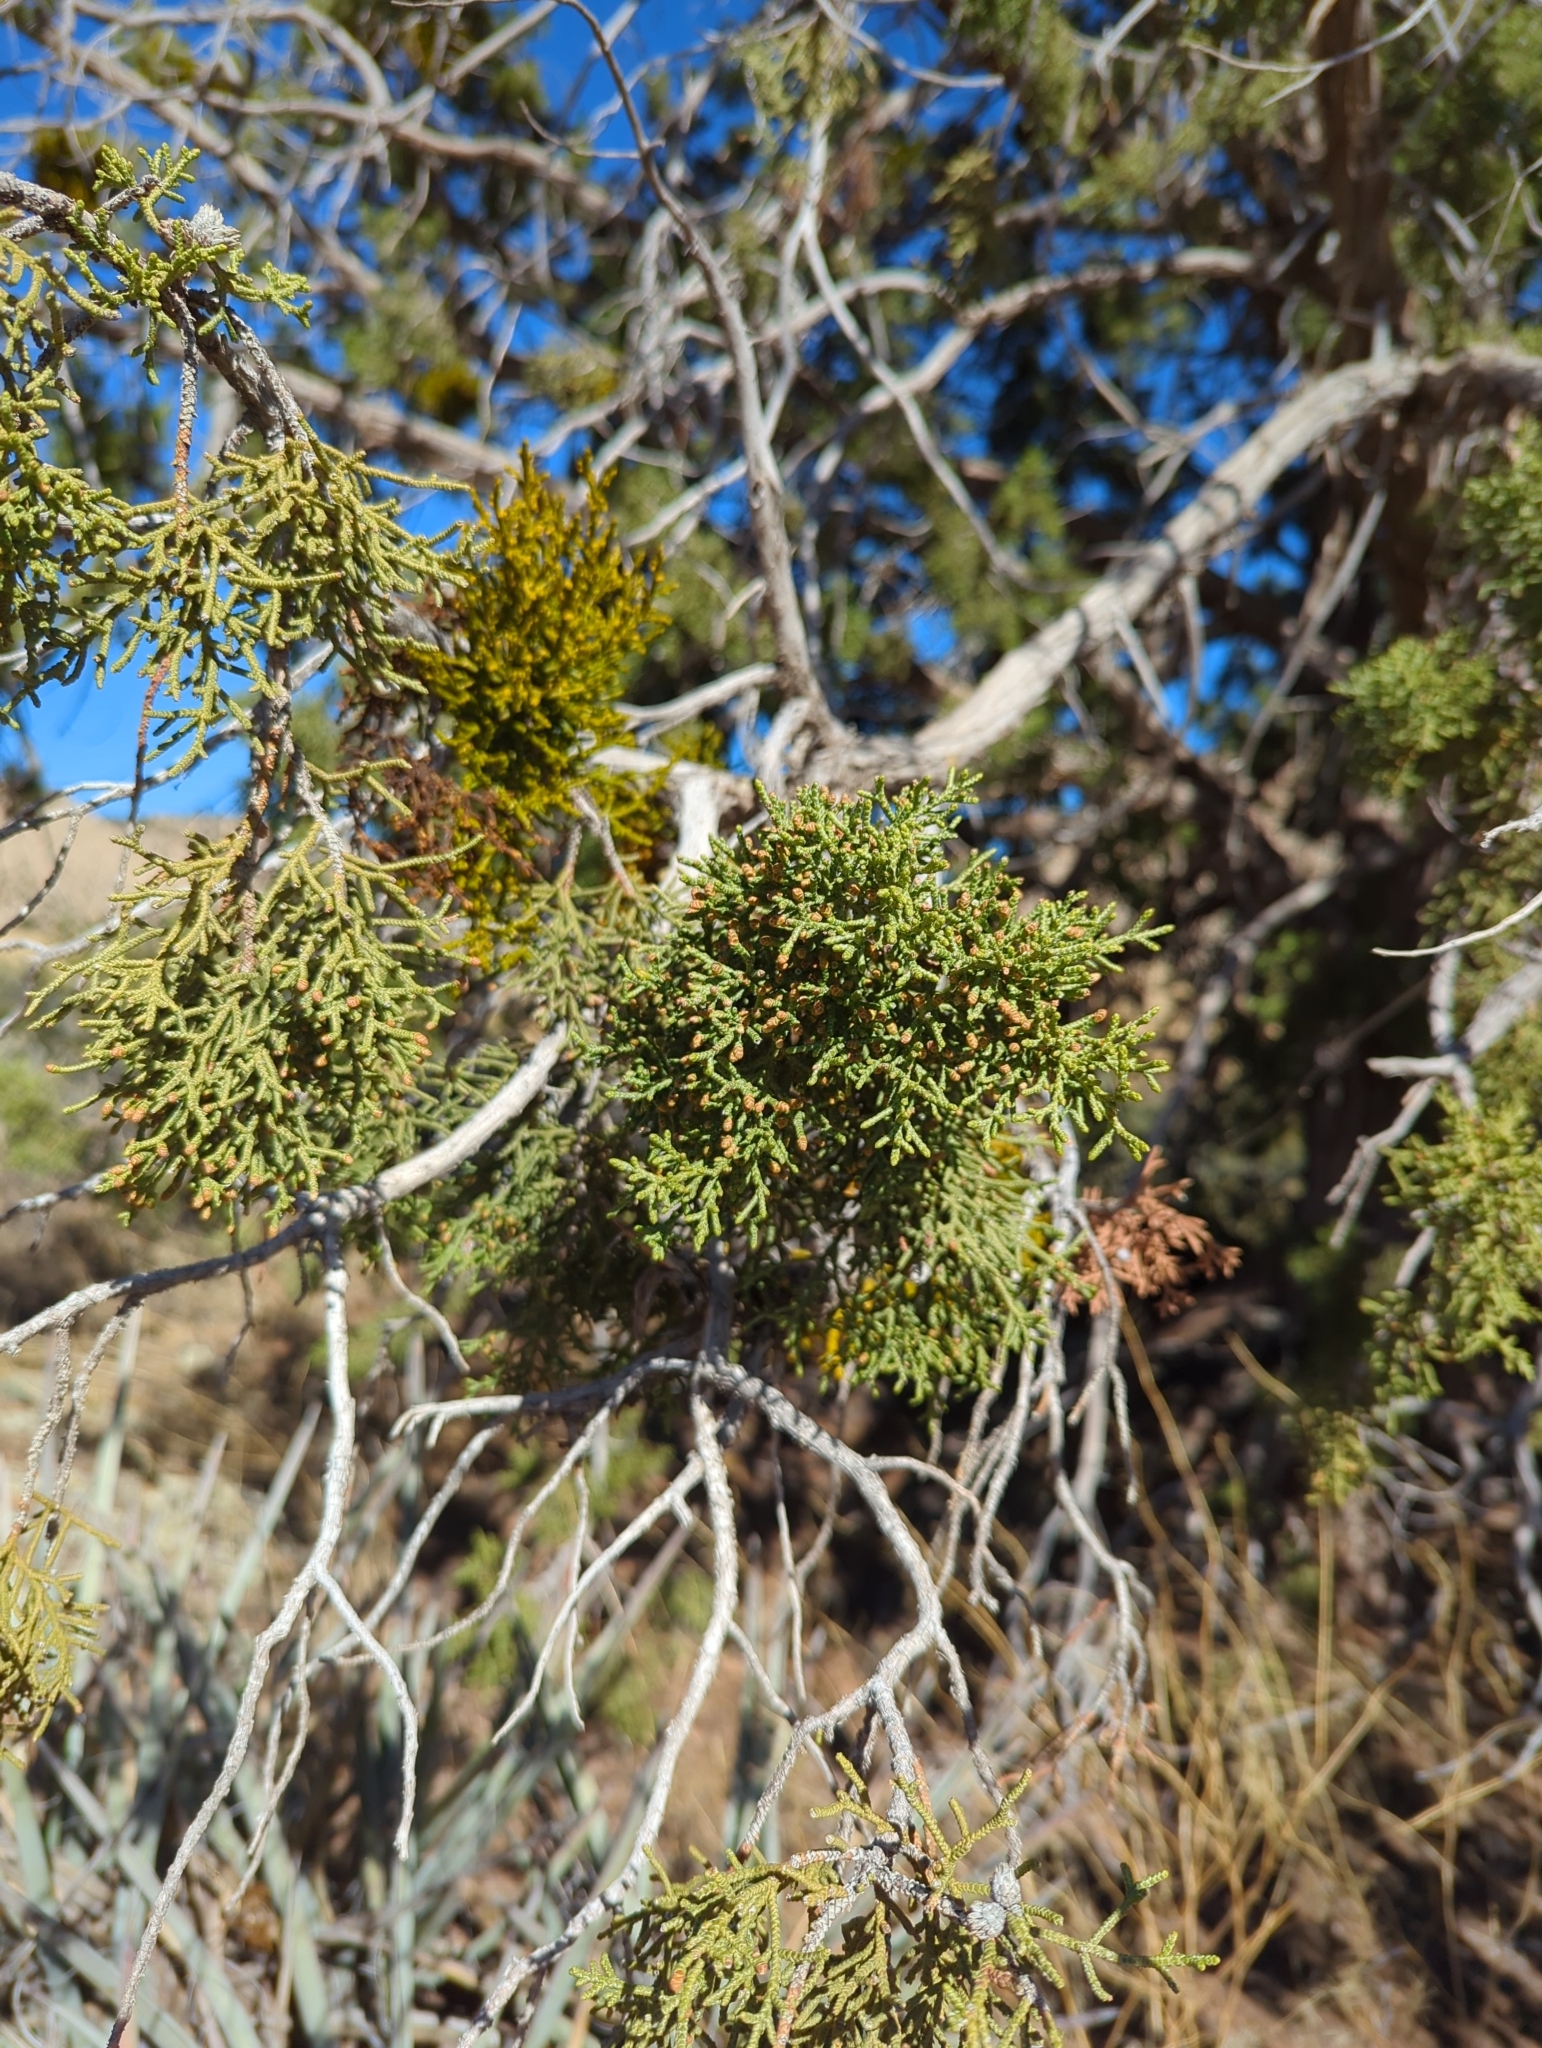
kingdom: Plantae
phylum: Tracheophyta
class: Pinopsida
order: Pinales
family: Cupressaceae
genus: Juniperus
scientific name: Juniperus osteosperma
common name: Utah juniper
